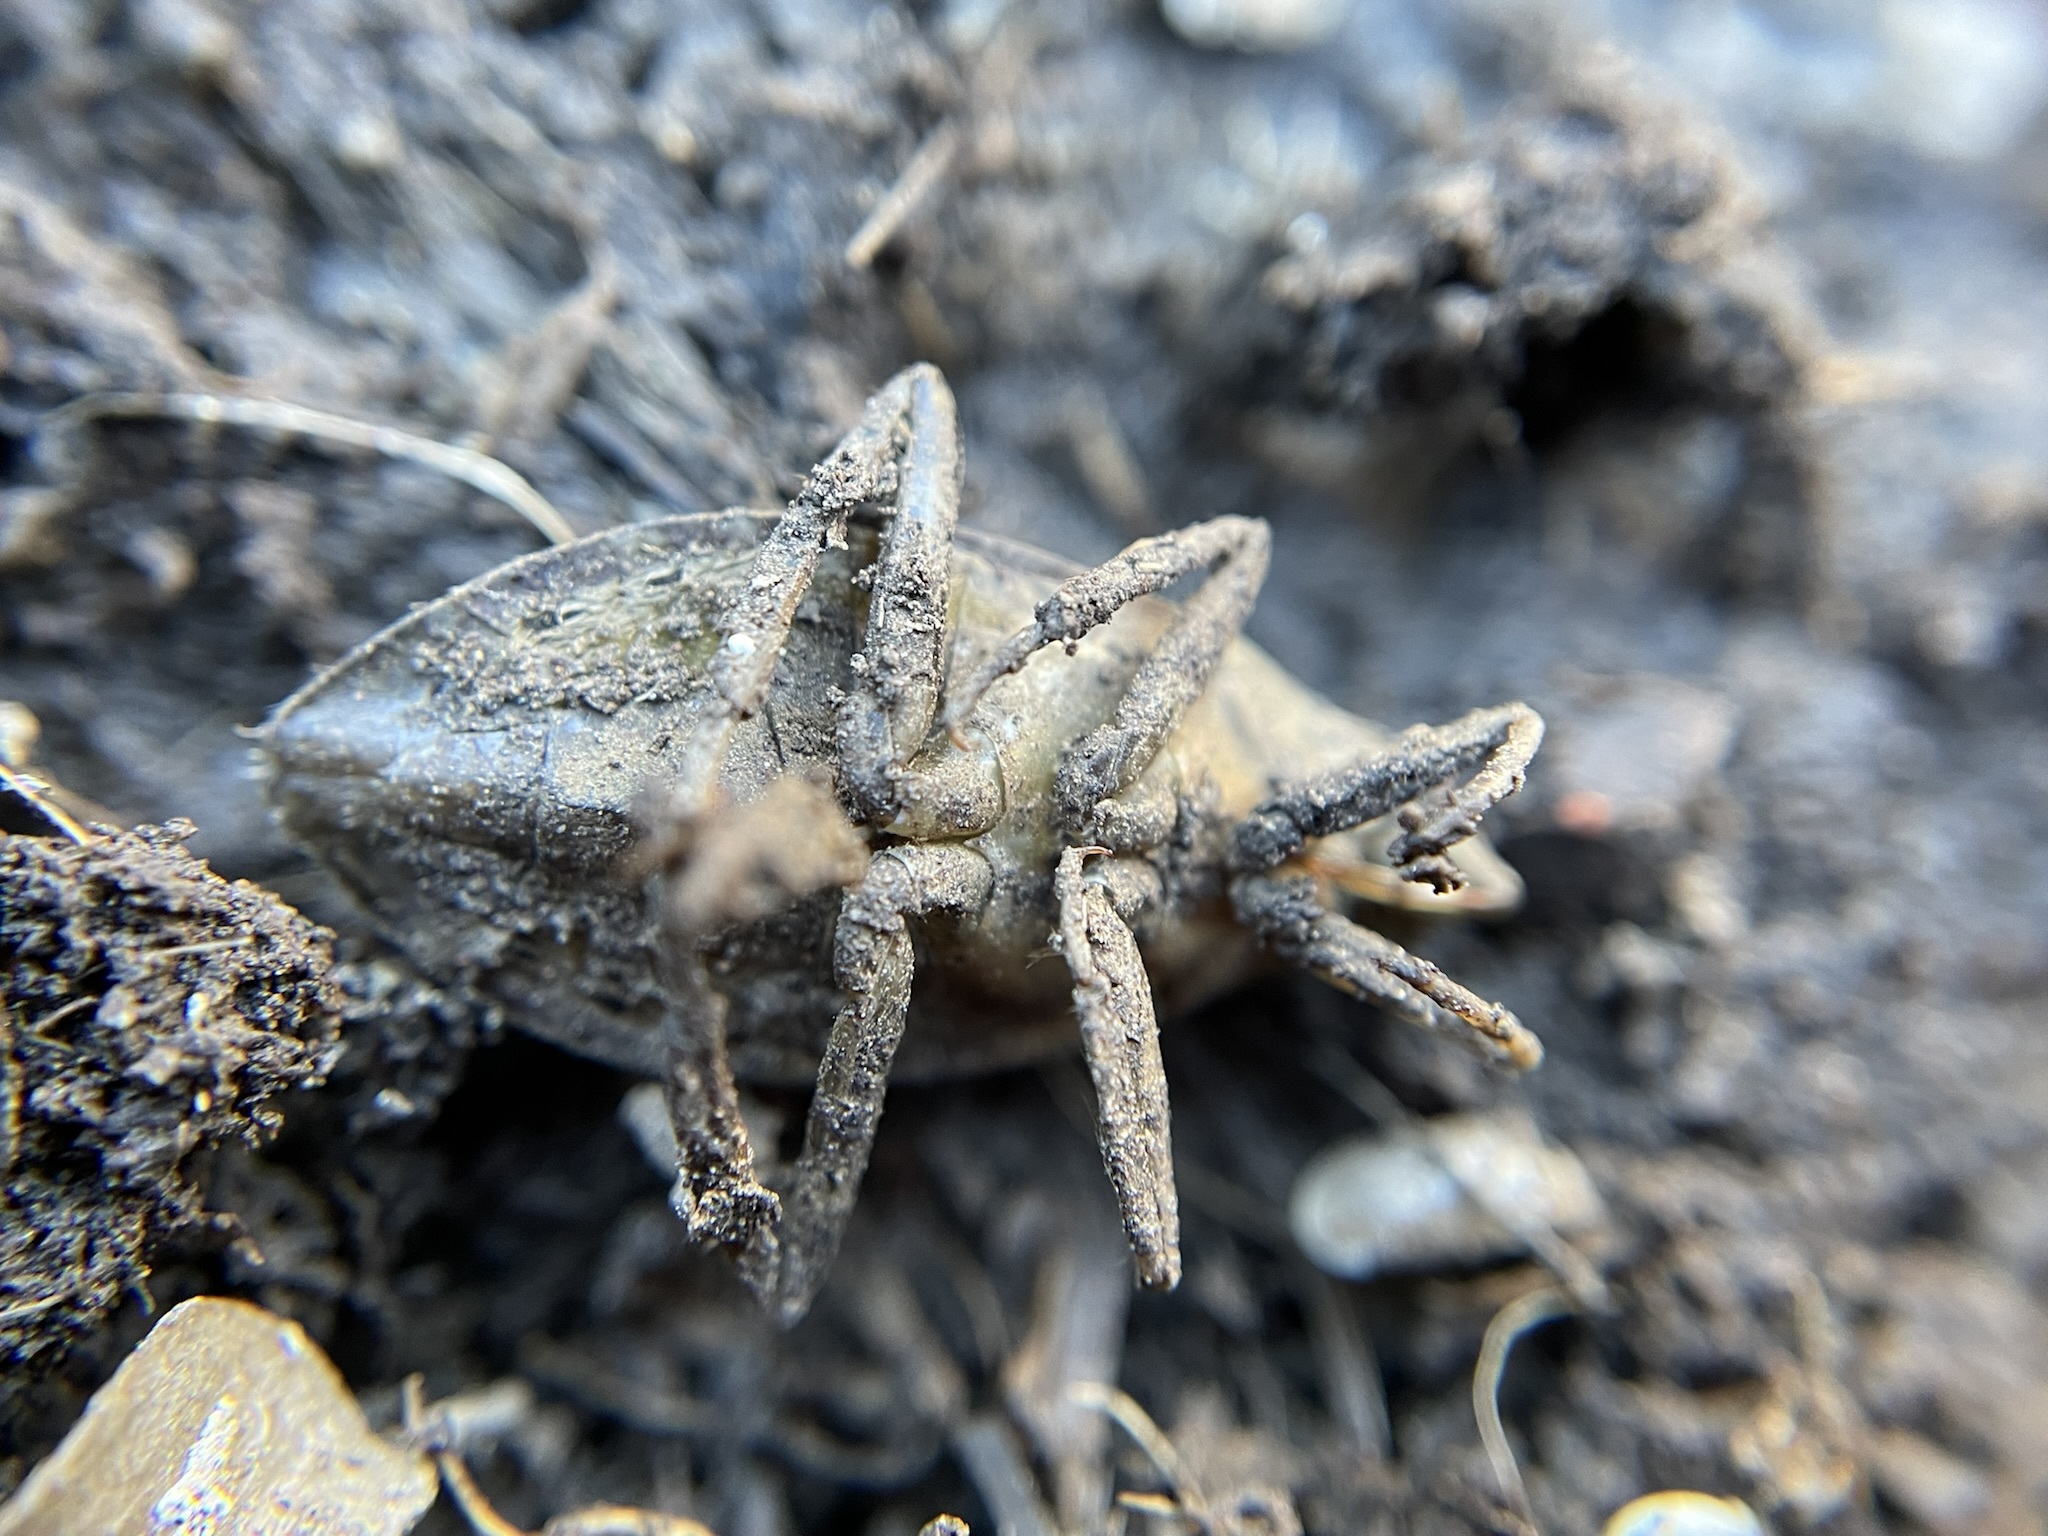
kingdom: Animalia
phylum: Arthropoda
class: Insecta
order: Hemiptera
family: Belostomatidae
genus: Belostoma
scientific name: Belostoma
